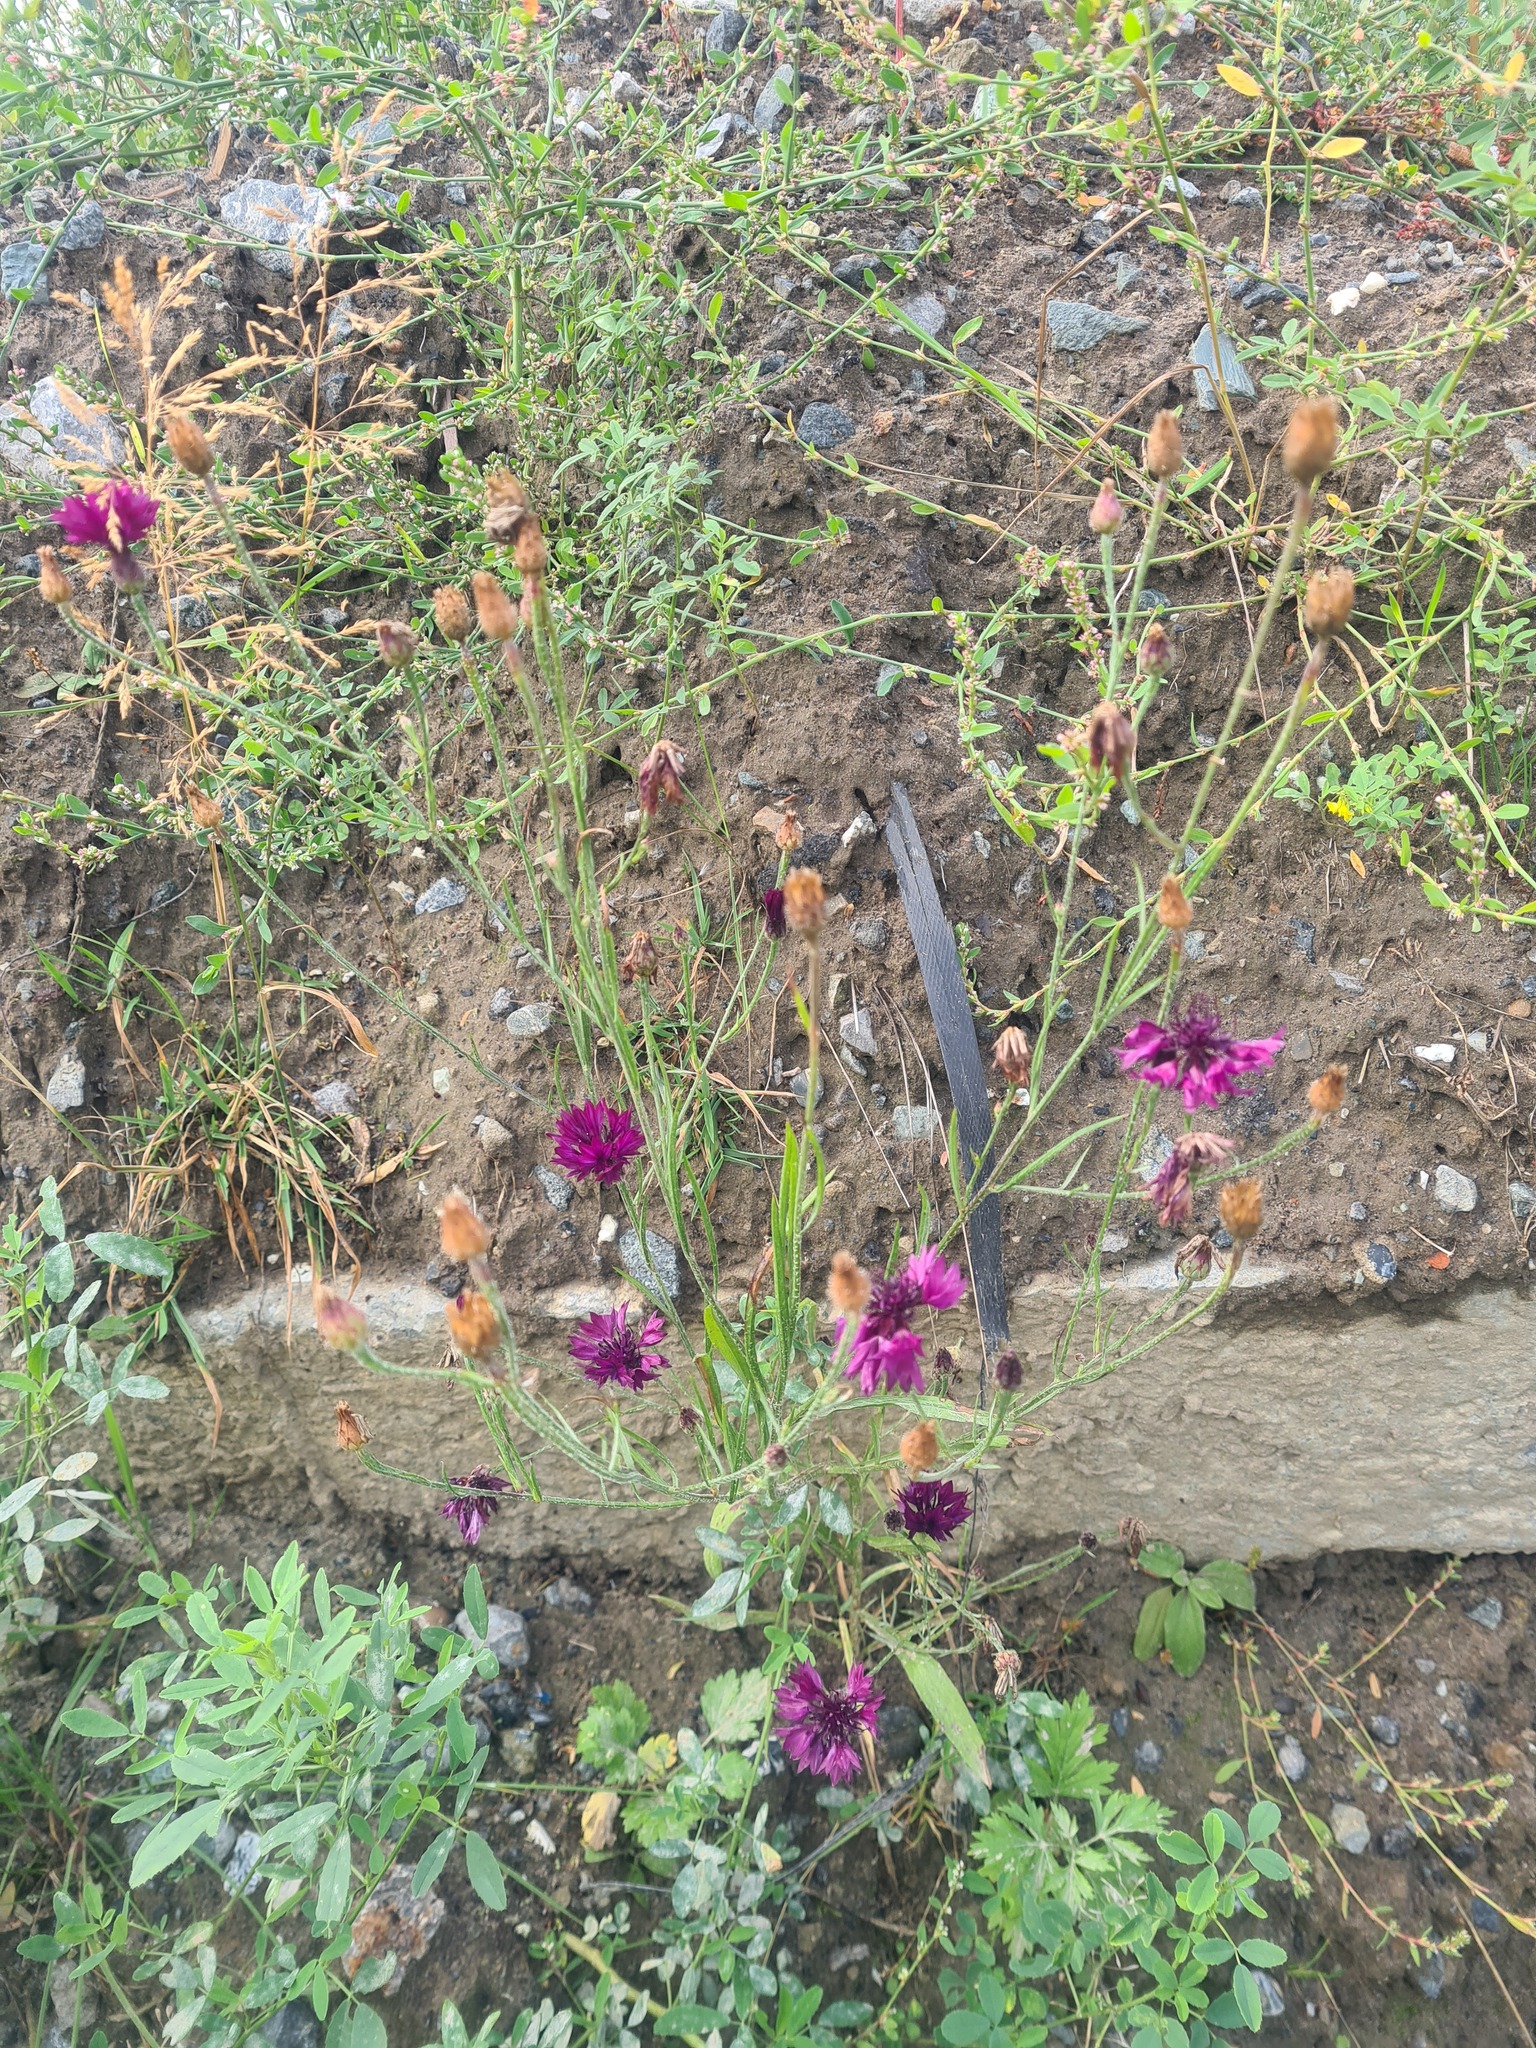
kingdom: Plantae
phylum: Tracheophyta
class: Magnoliopsida
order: Asterales
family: Asteraceae
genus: Centaurea
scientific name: Centaurea cyanus
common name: Cornflower
